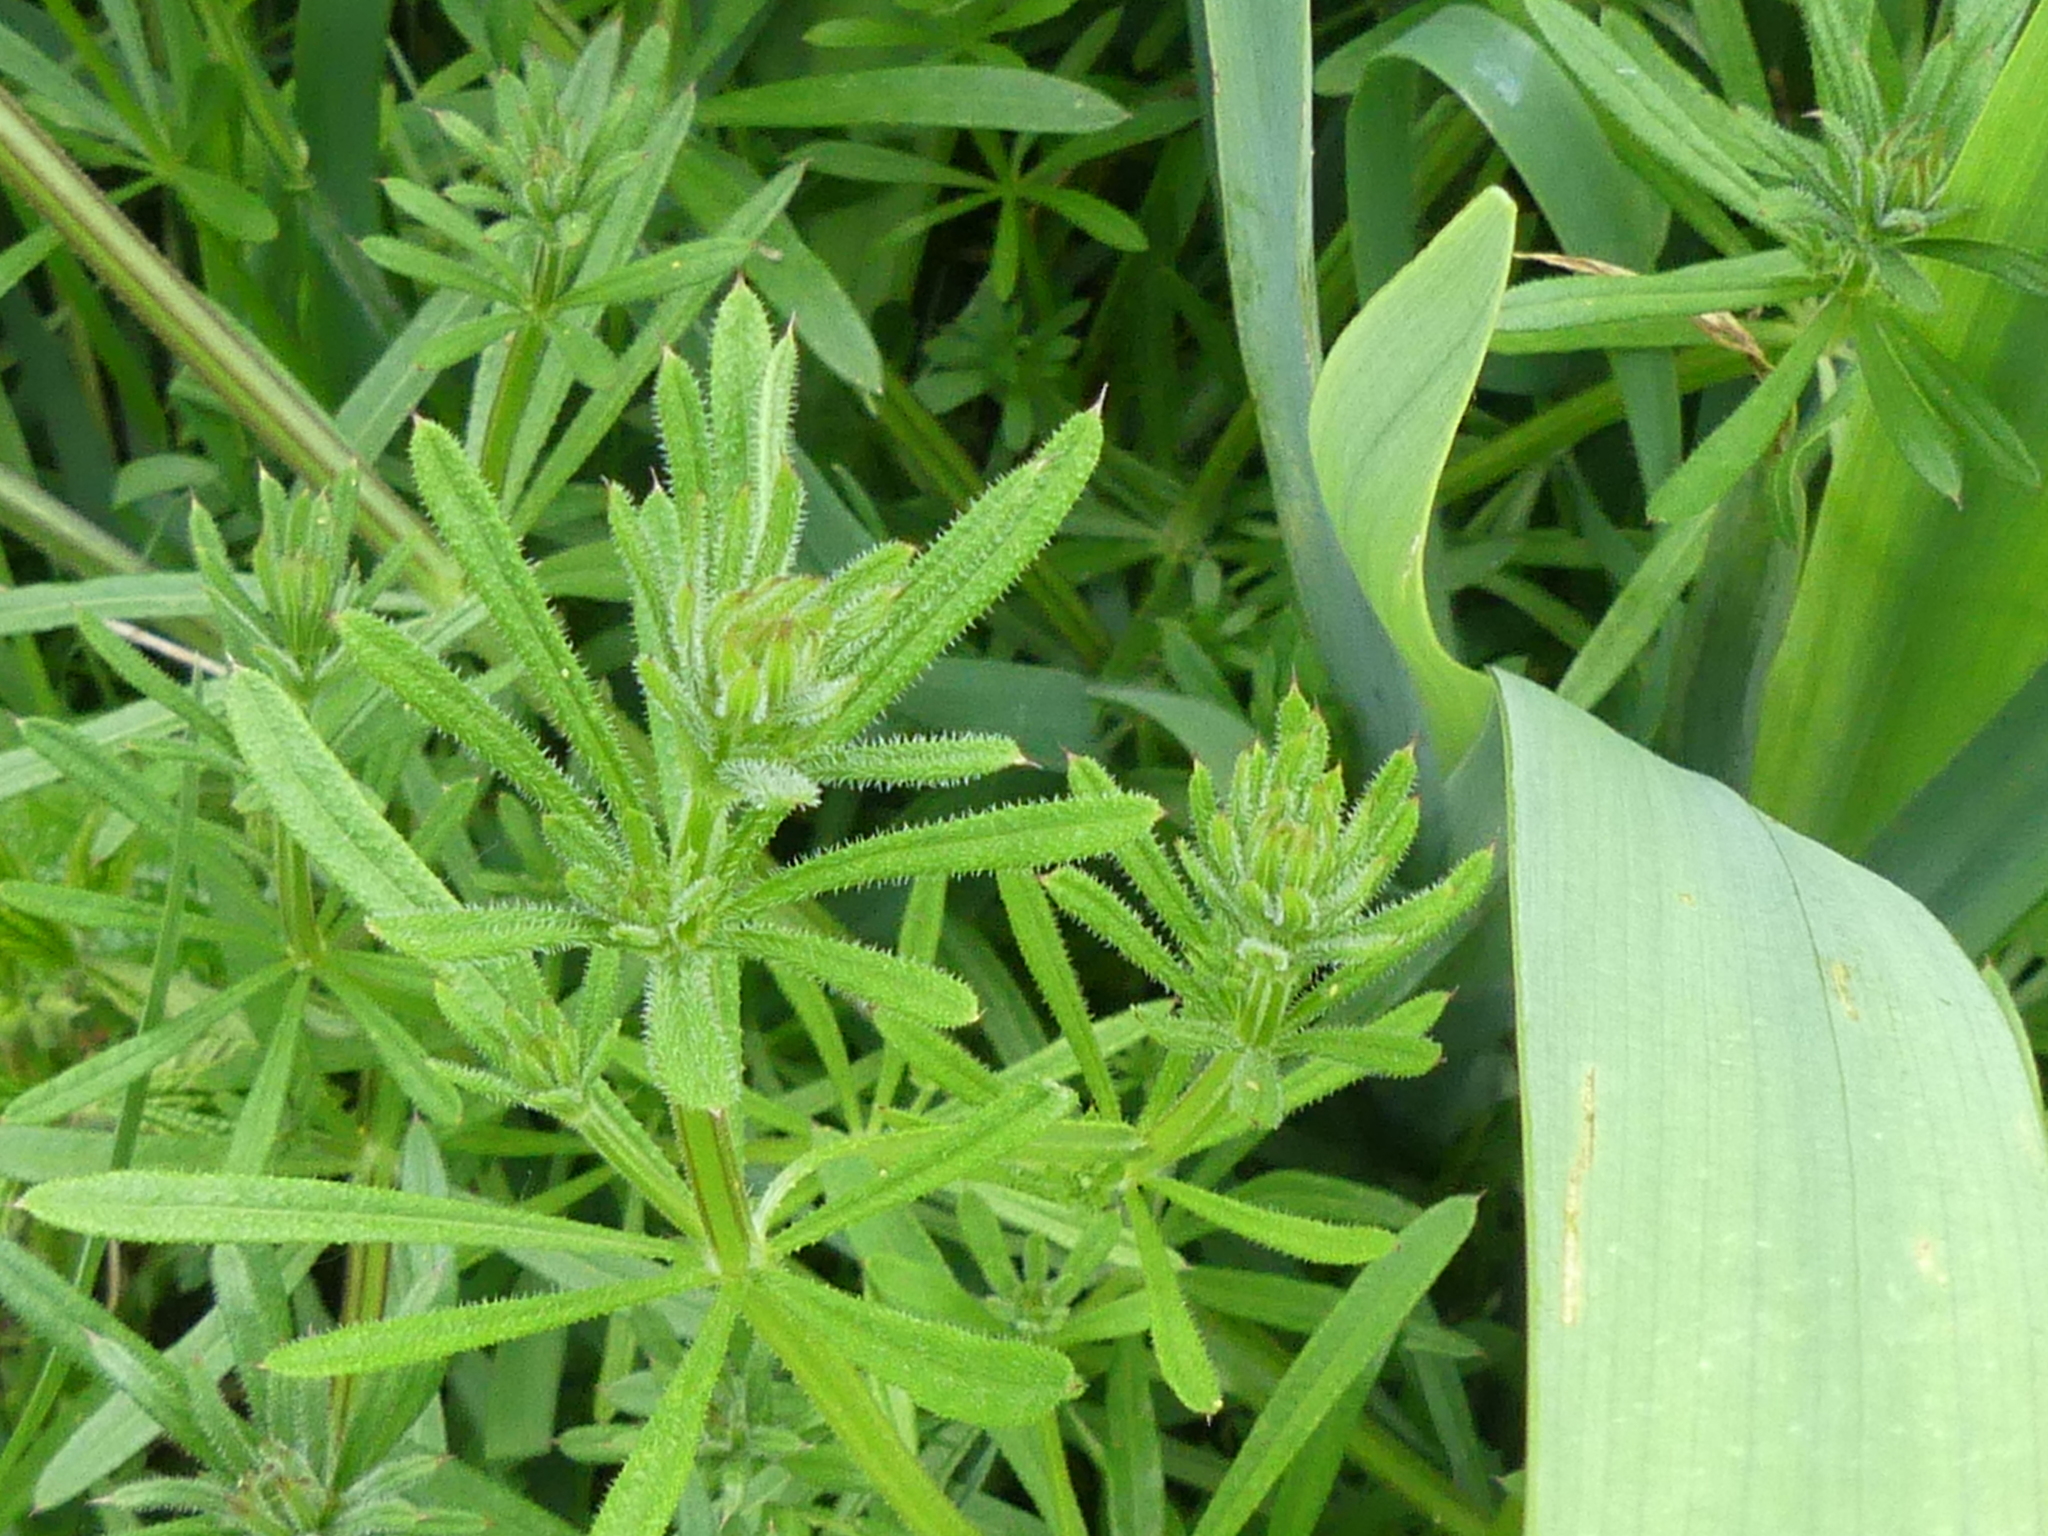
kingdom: Plantae
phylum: Tracheophyta
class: Magnoliopsida
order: Gentianales
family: Rubiaceae
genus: Galium
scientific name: Galium aparine
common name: Cleavers
